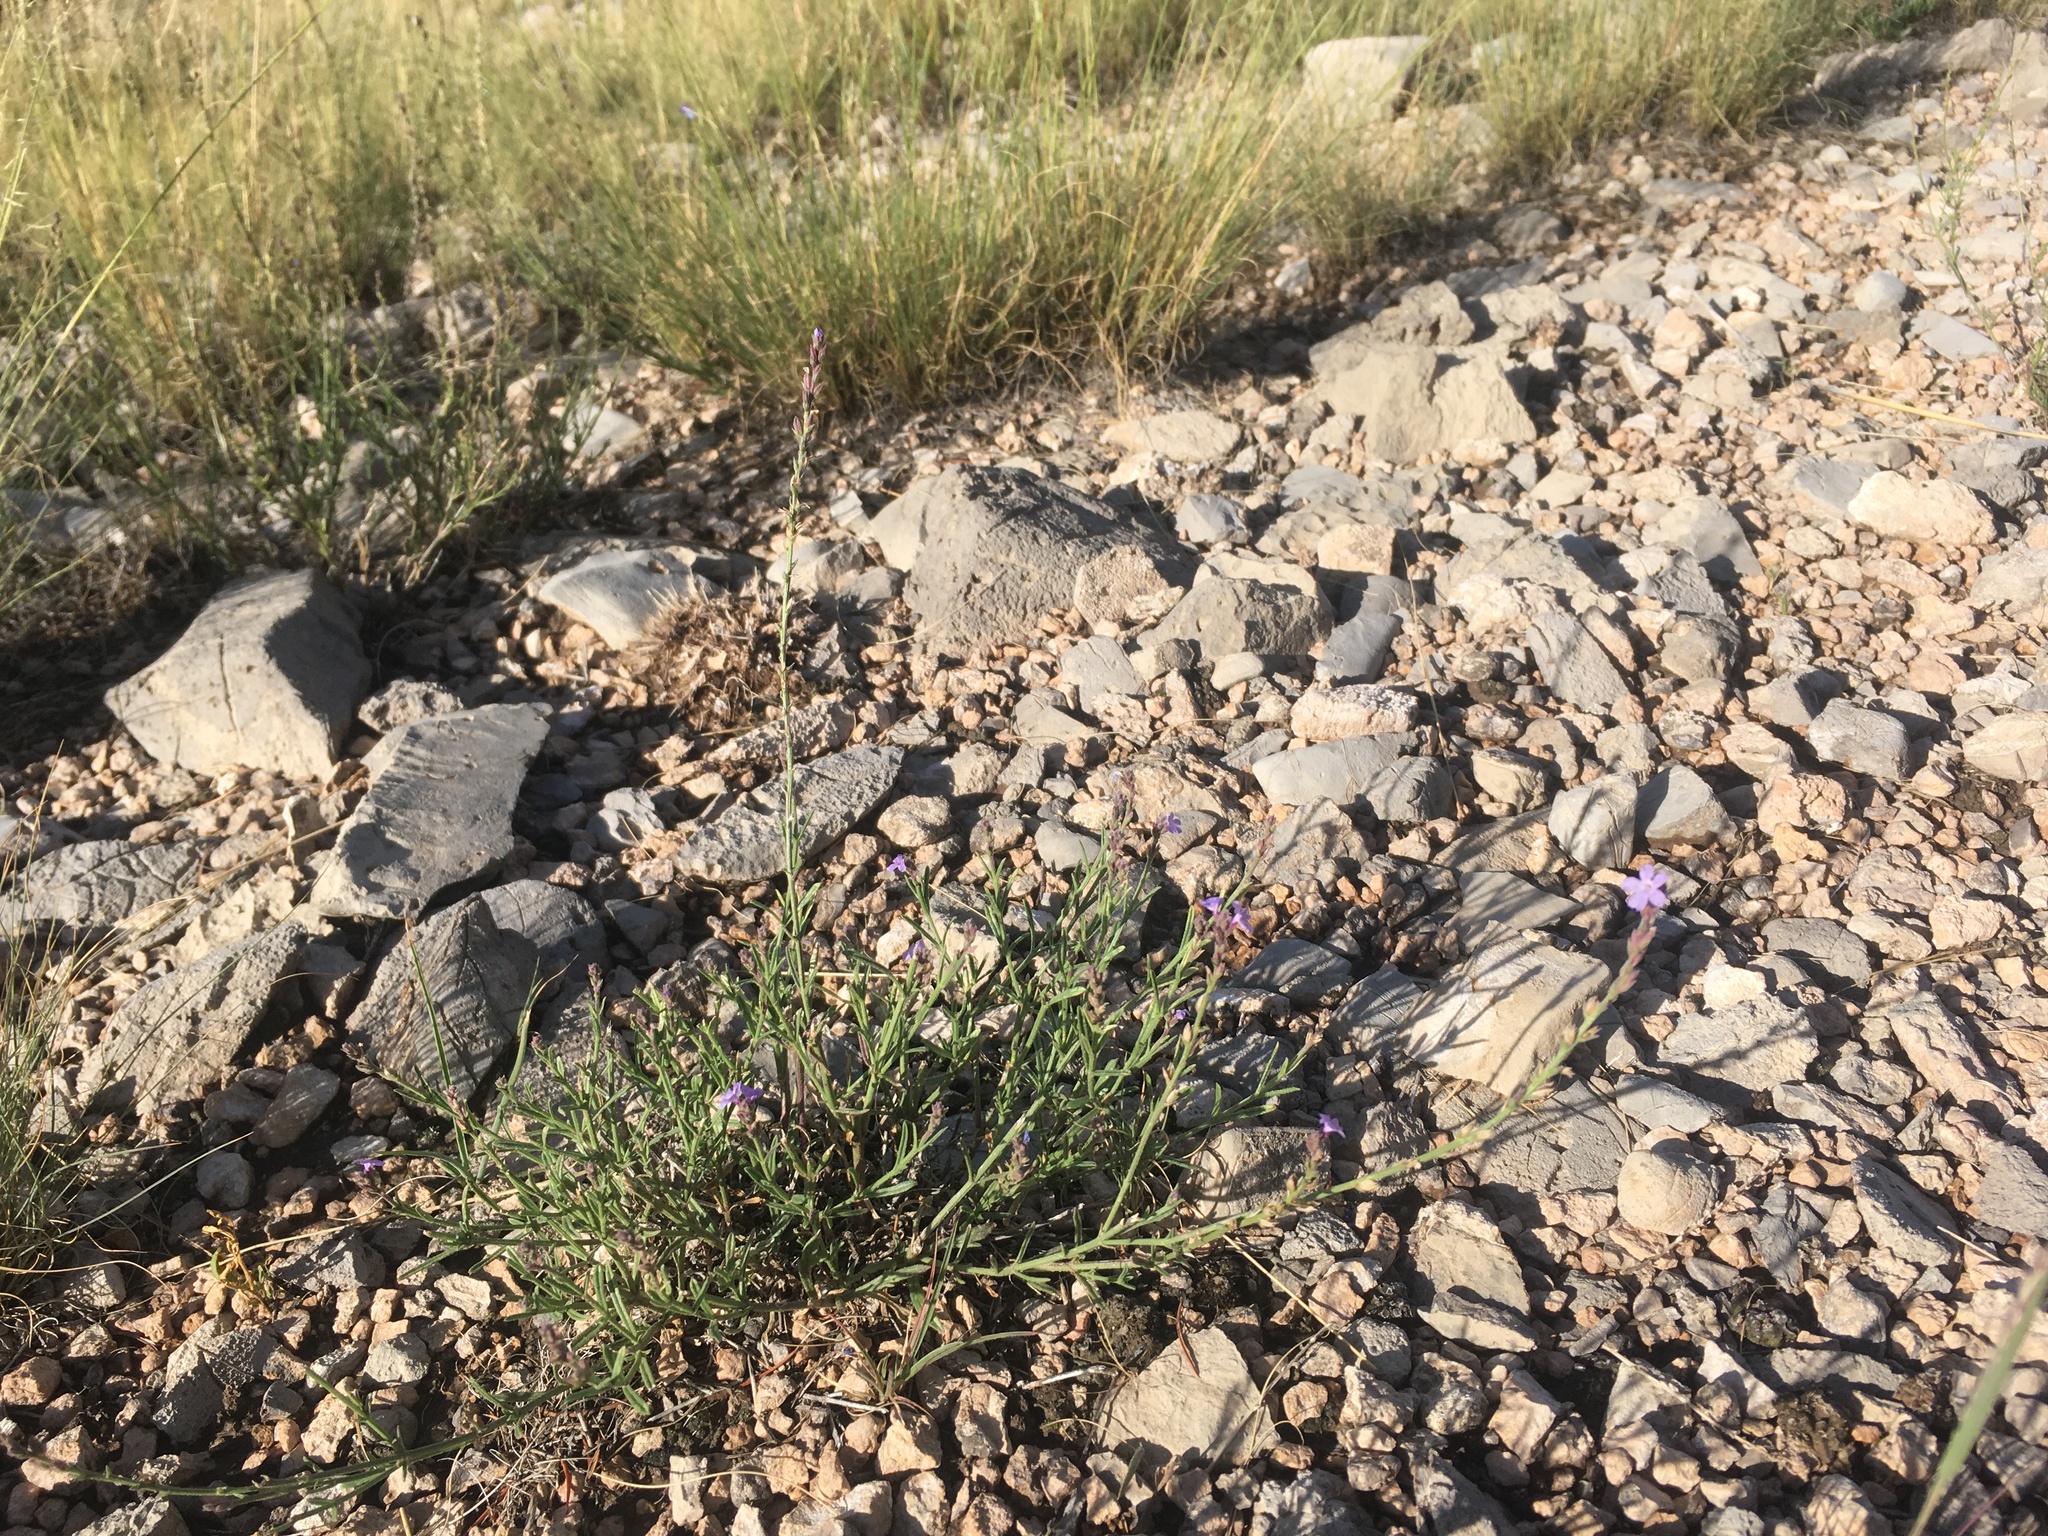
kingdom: Plantae
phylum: Tracheophyta
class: Magnoliopsida
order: Lamiales
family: Verbenaceae
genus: Verbena
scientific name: Verbena perennis
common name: Pin-leaf vervain
